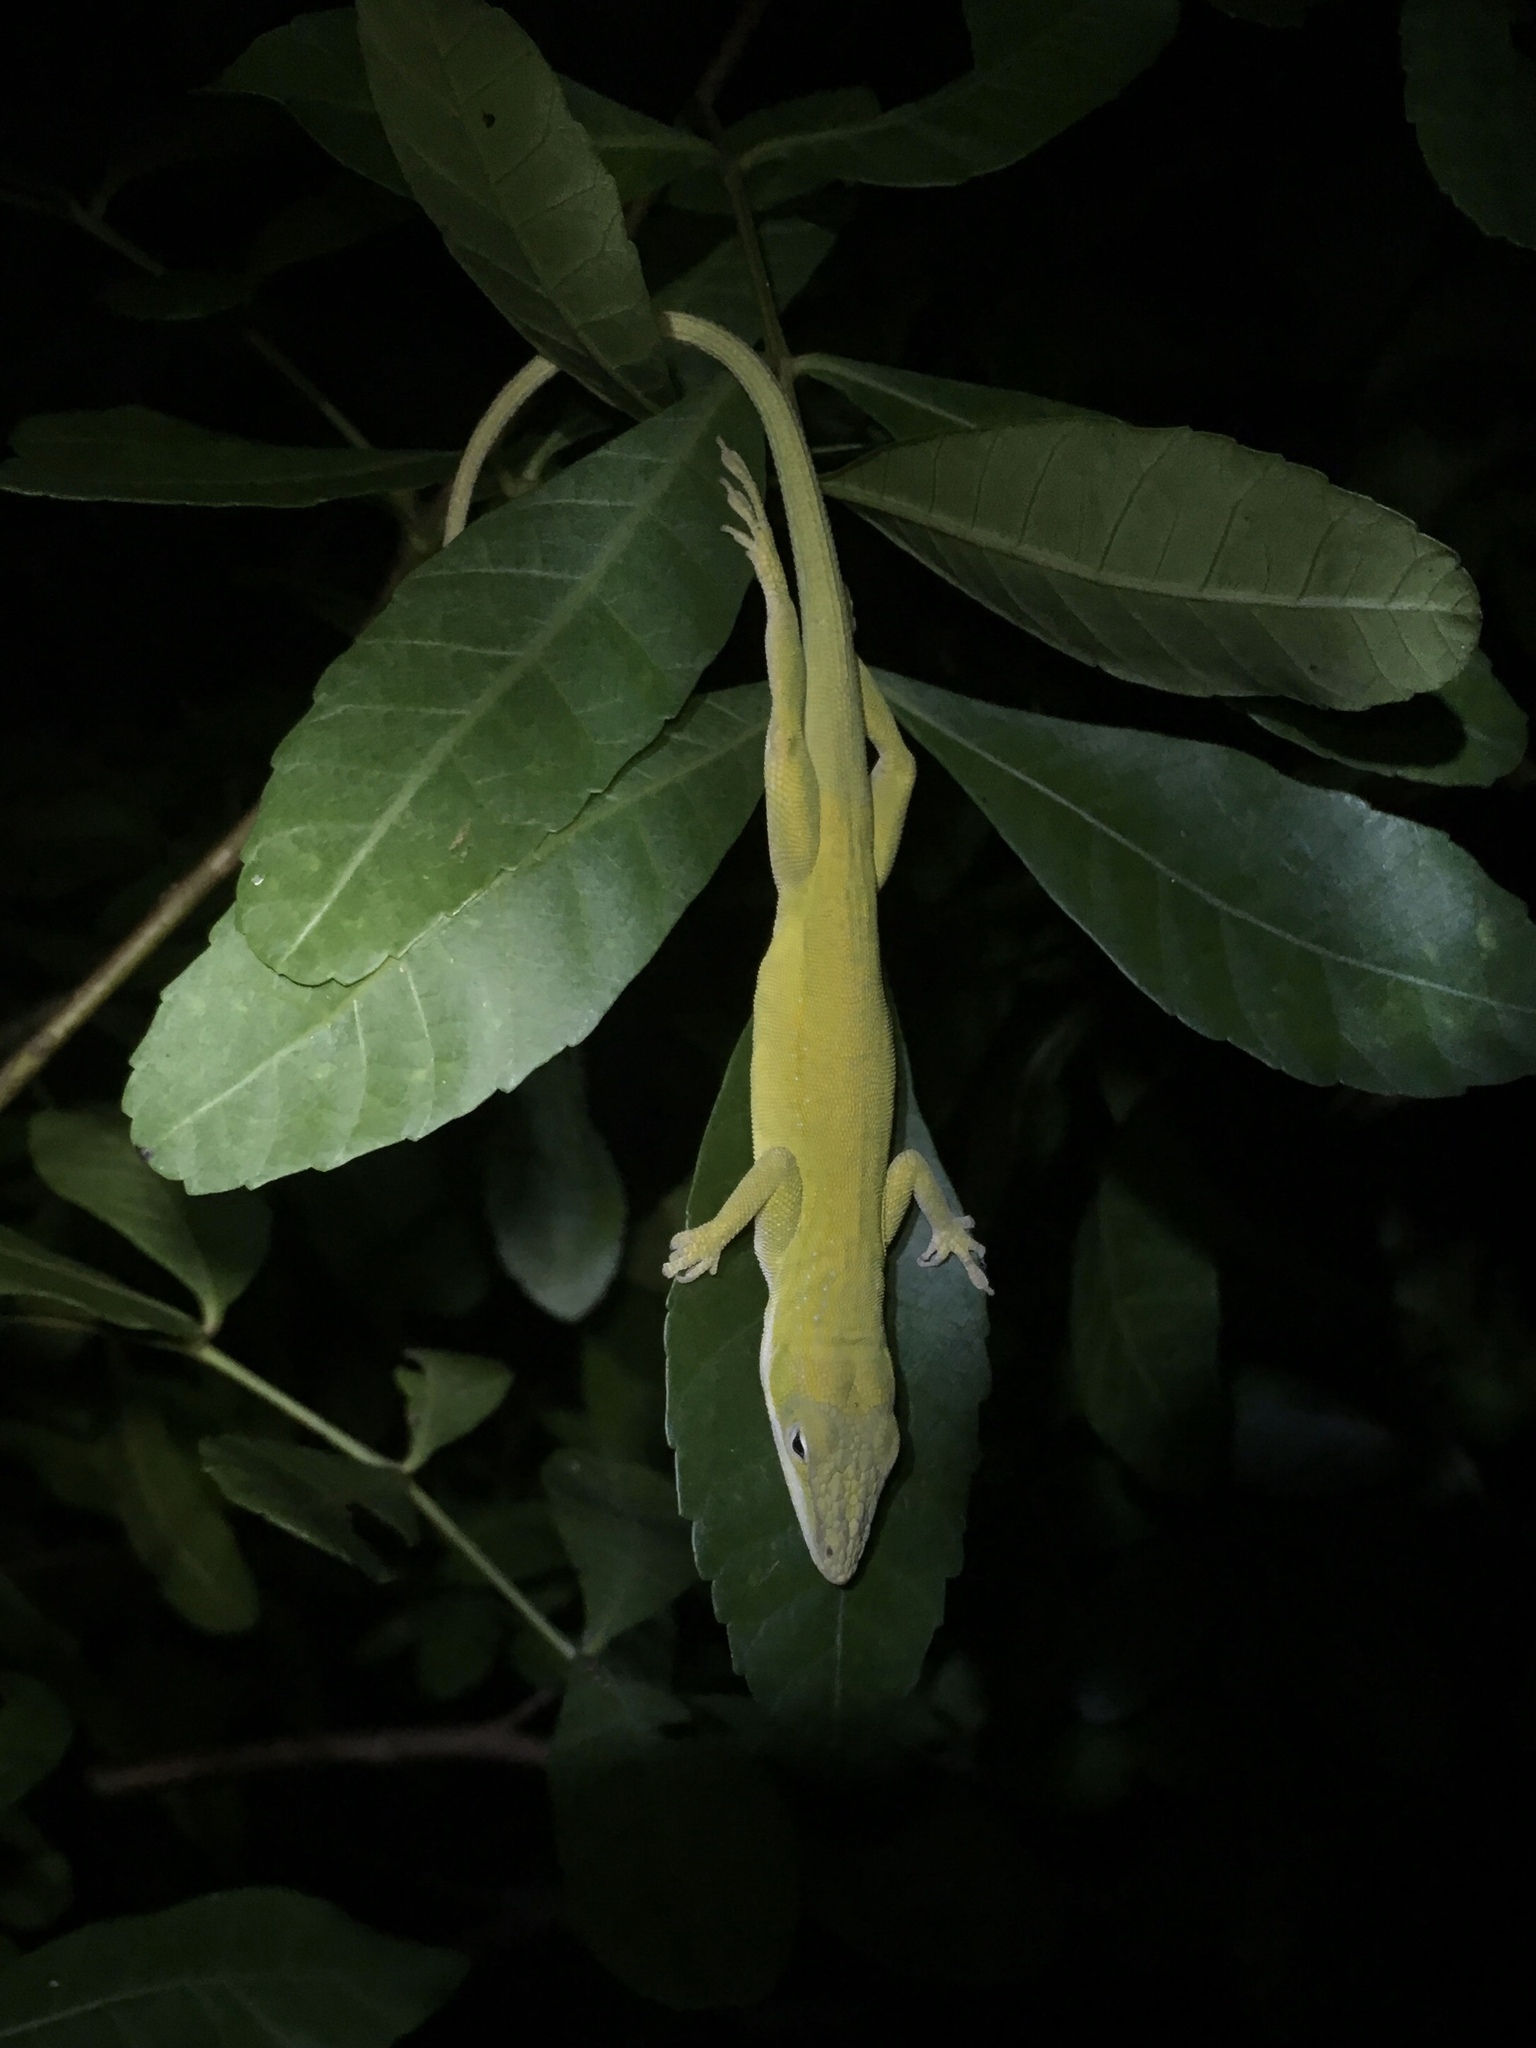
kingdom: Animalia
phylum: Chordata
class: Squamata
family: Dactyloidae
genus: Anolis
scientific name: Anolis carolinensis
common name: Green anole
